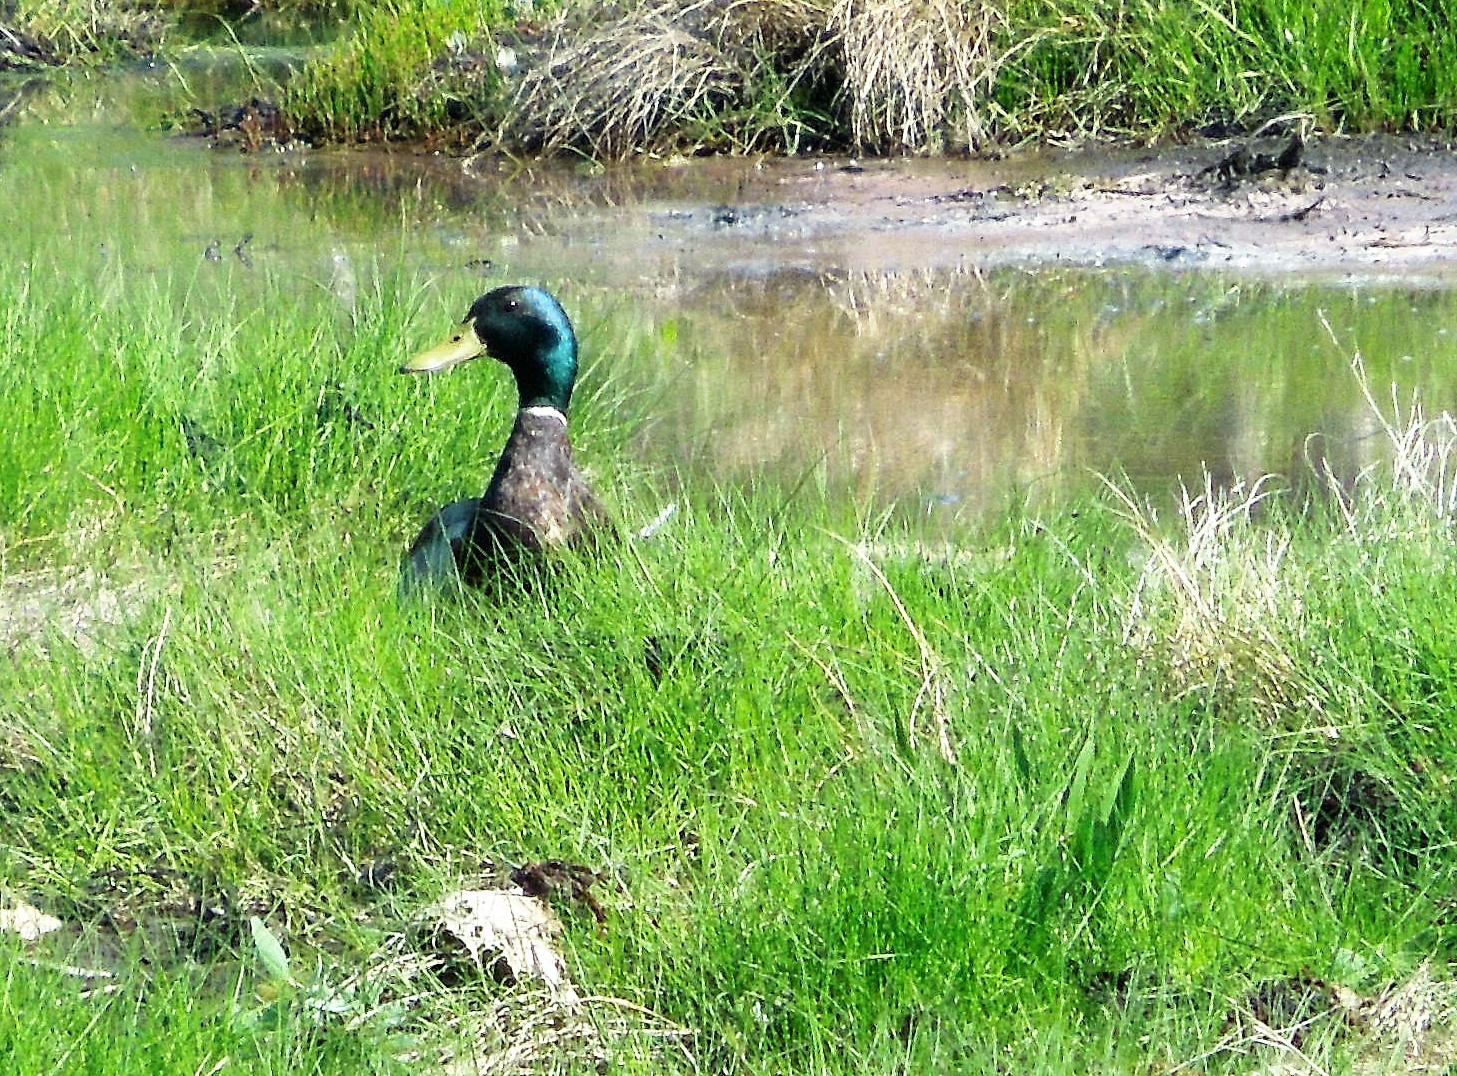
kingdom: Animalia
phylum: Chordata
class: Aves
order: Anseriformes
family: Anatidae
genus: Anas
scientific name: Anas platyrhynchos
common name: Mallard
